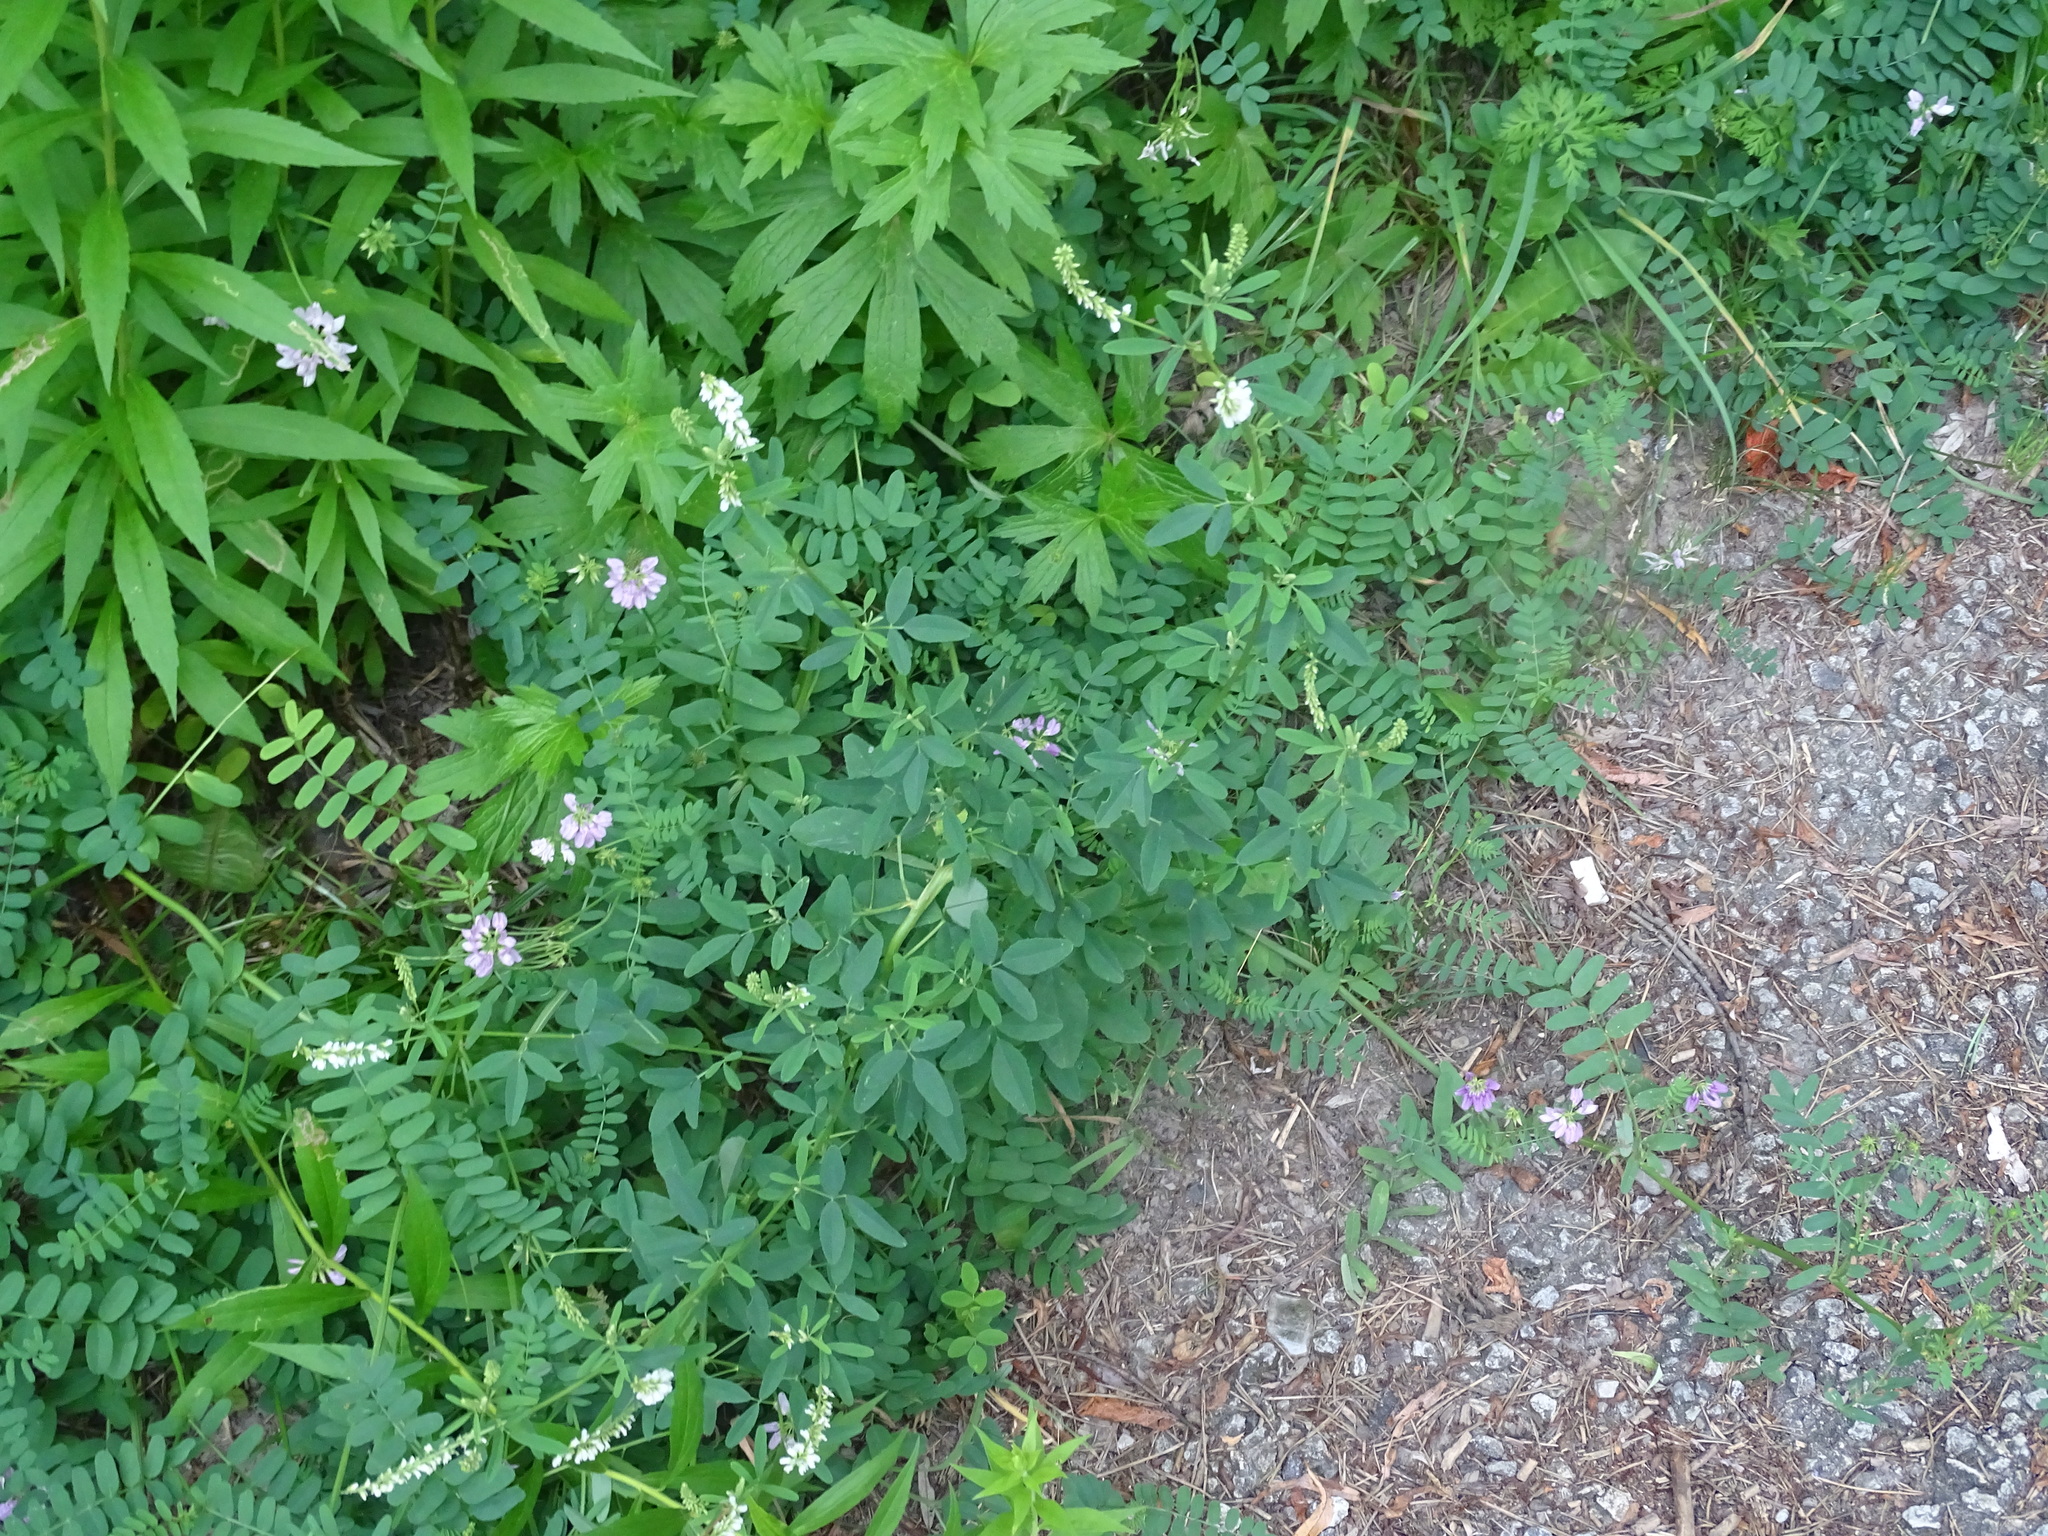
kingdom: Plantae
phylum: Tracheophyta
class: Magnoliopsida
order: Fabales
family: Fabaceae
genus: Melilotus
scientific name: Melilotus albus
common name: White melilot
